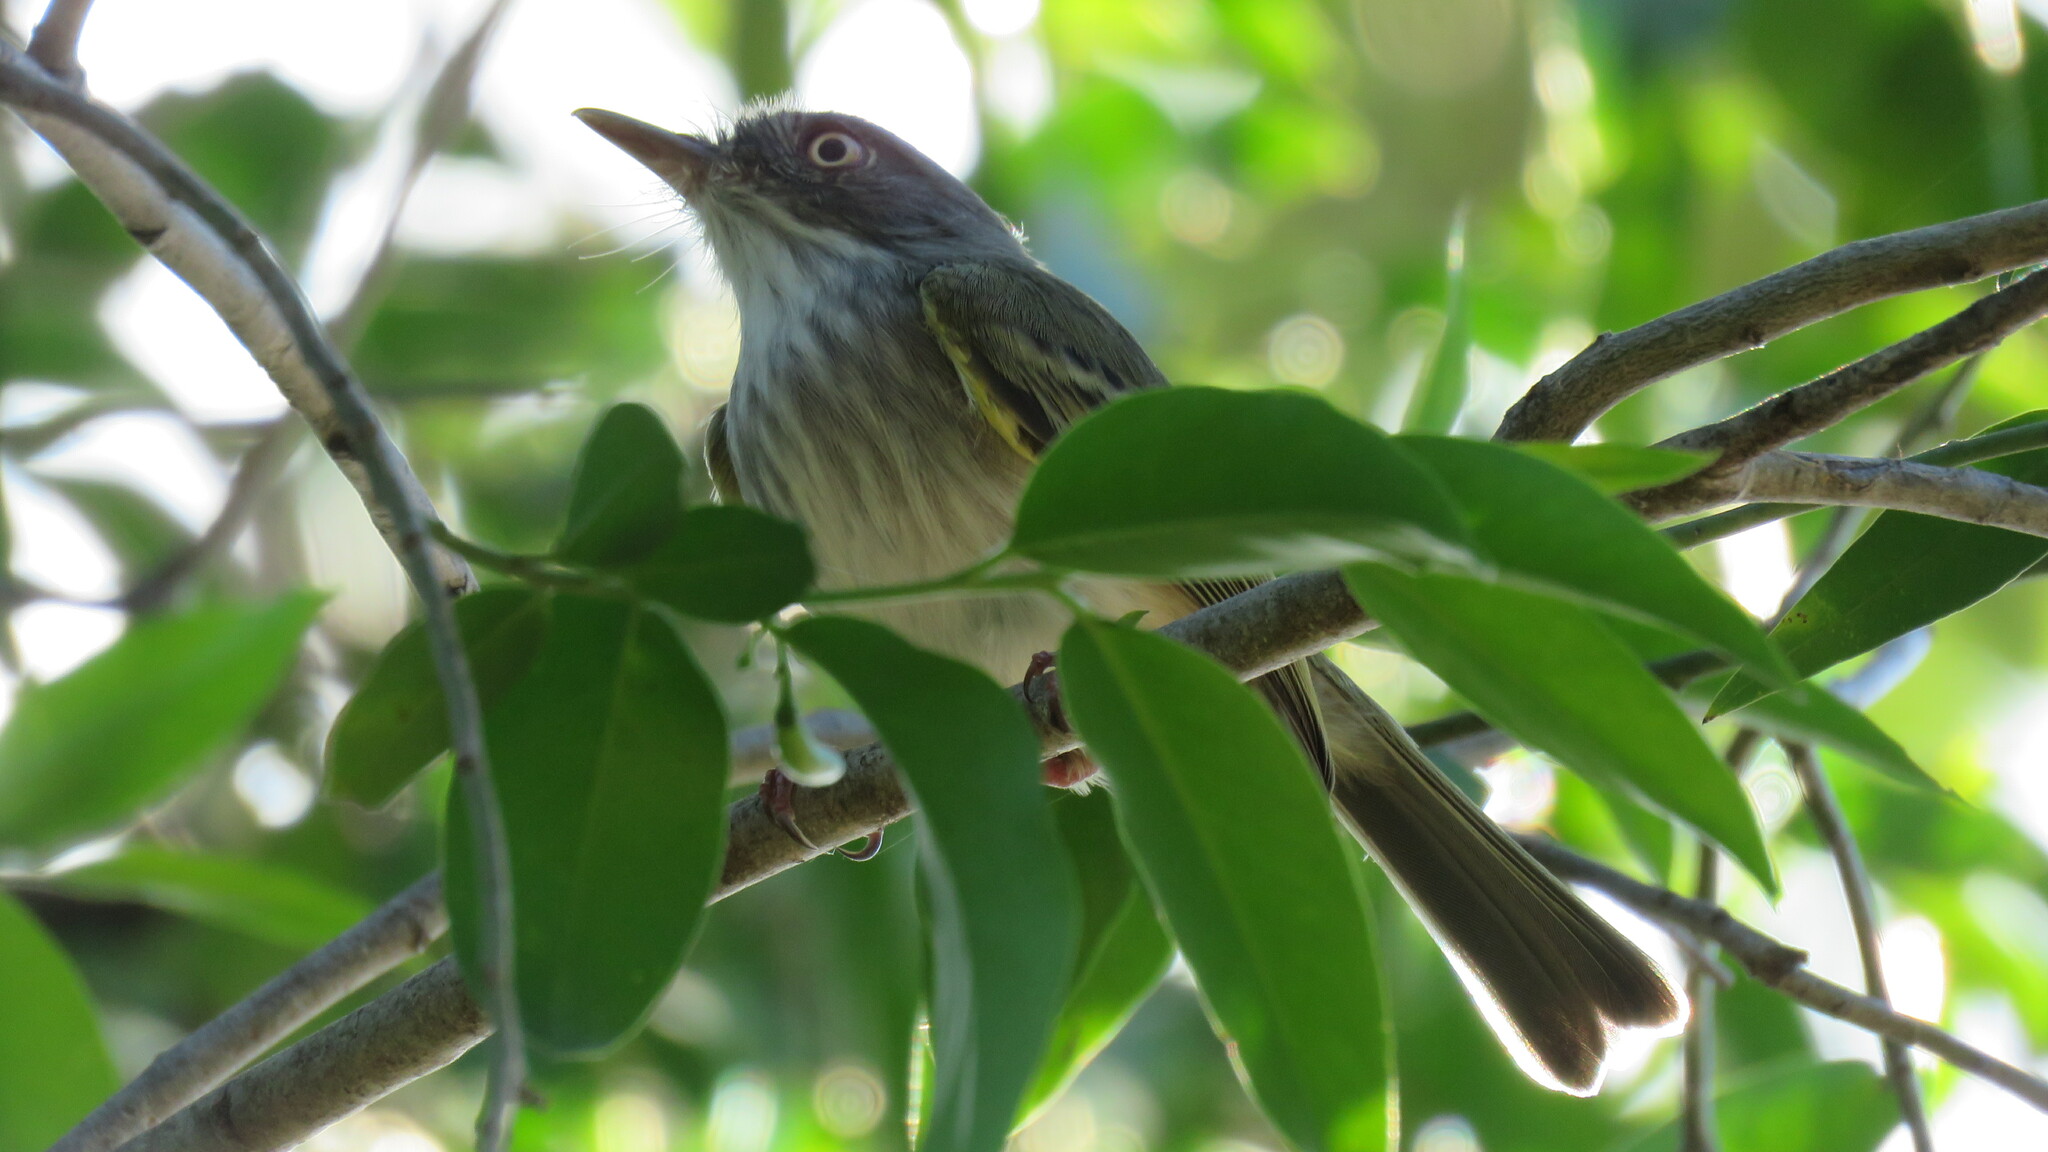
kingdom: Animalia
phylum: Chordata
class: Aves
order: Passeriformes
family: Tyrannidae
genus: Hemitriccus
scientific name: Hemitriccus margaritaceiventer
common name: Pearly-vented tody-tyrant
